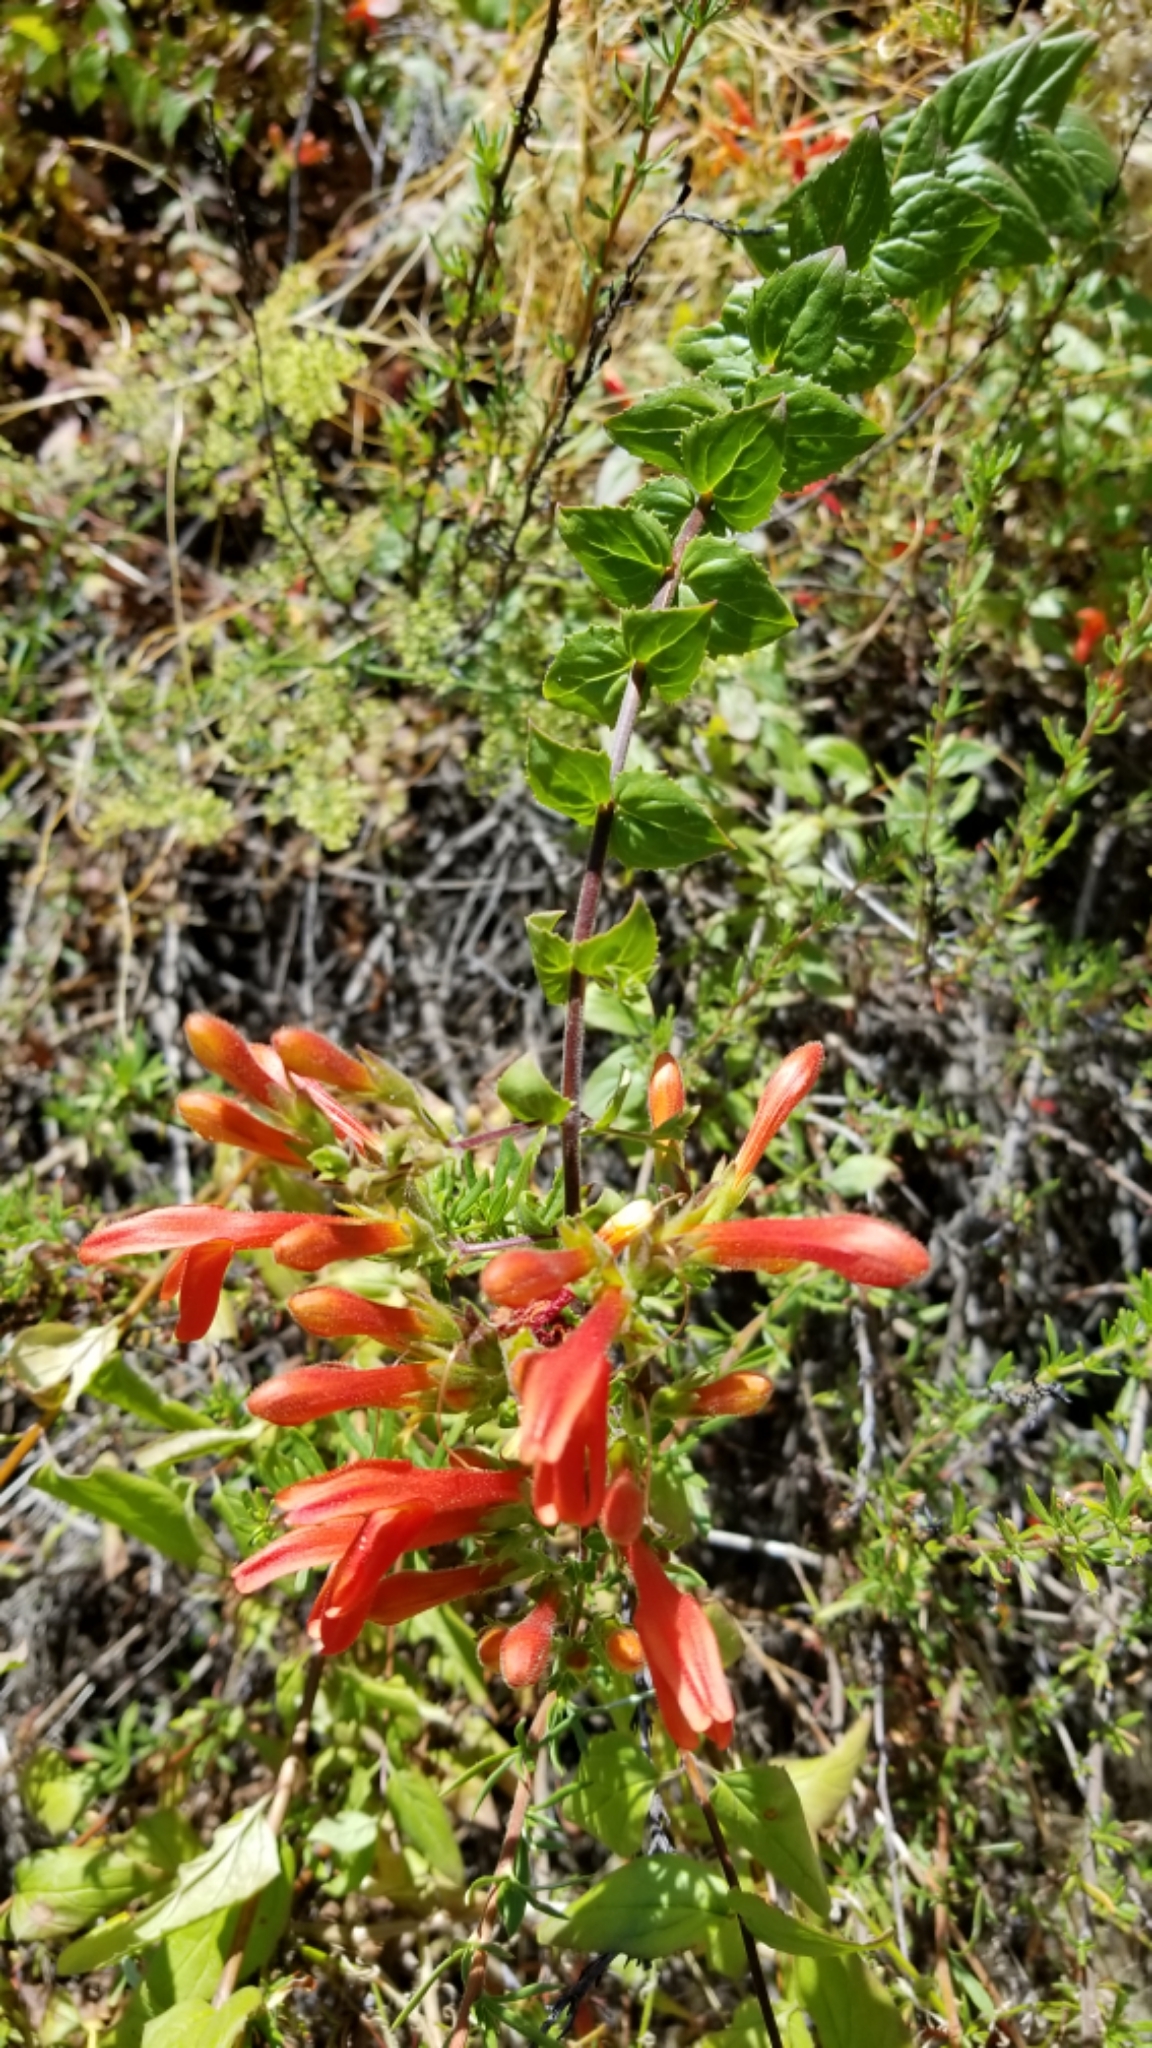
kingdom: Plantae
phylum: Tracheophyta
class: Magnoliopsida
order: Lamiales
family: Plantaginaceae
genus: Keckiella
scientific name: Keckiella cordifolia
